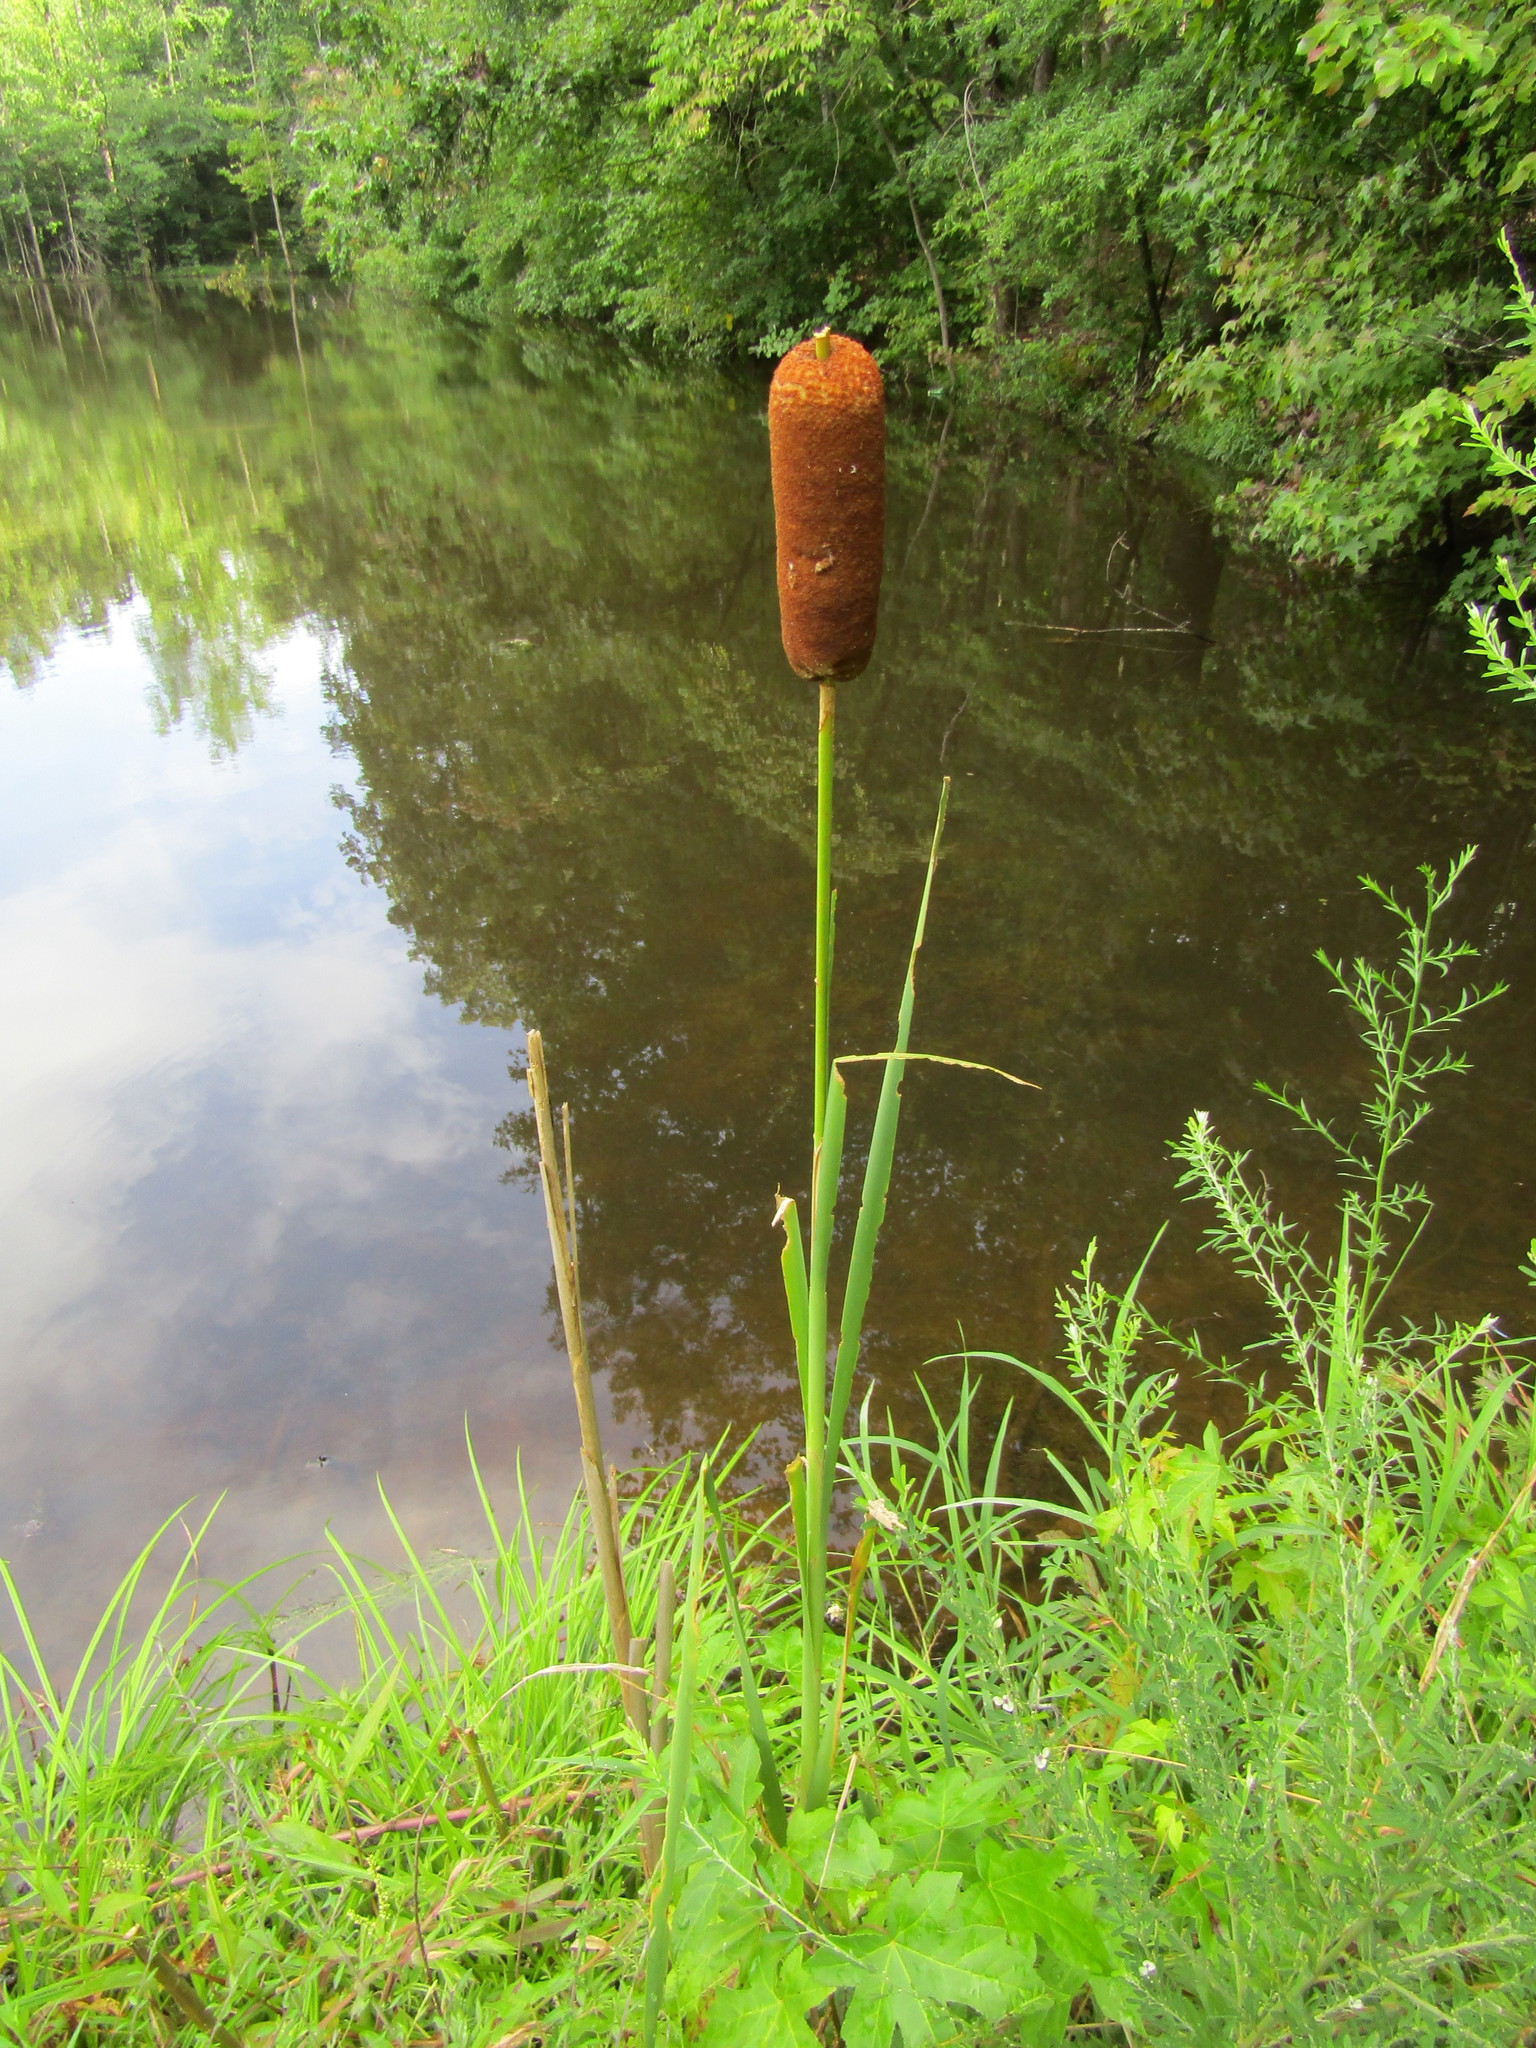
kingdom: Plantae
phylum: Tracheophyta
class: Liliopsida
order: Poales
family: Typhaceae
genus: Typha
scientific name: Typha latifolia
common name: Broadleaf cattail
